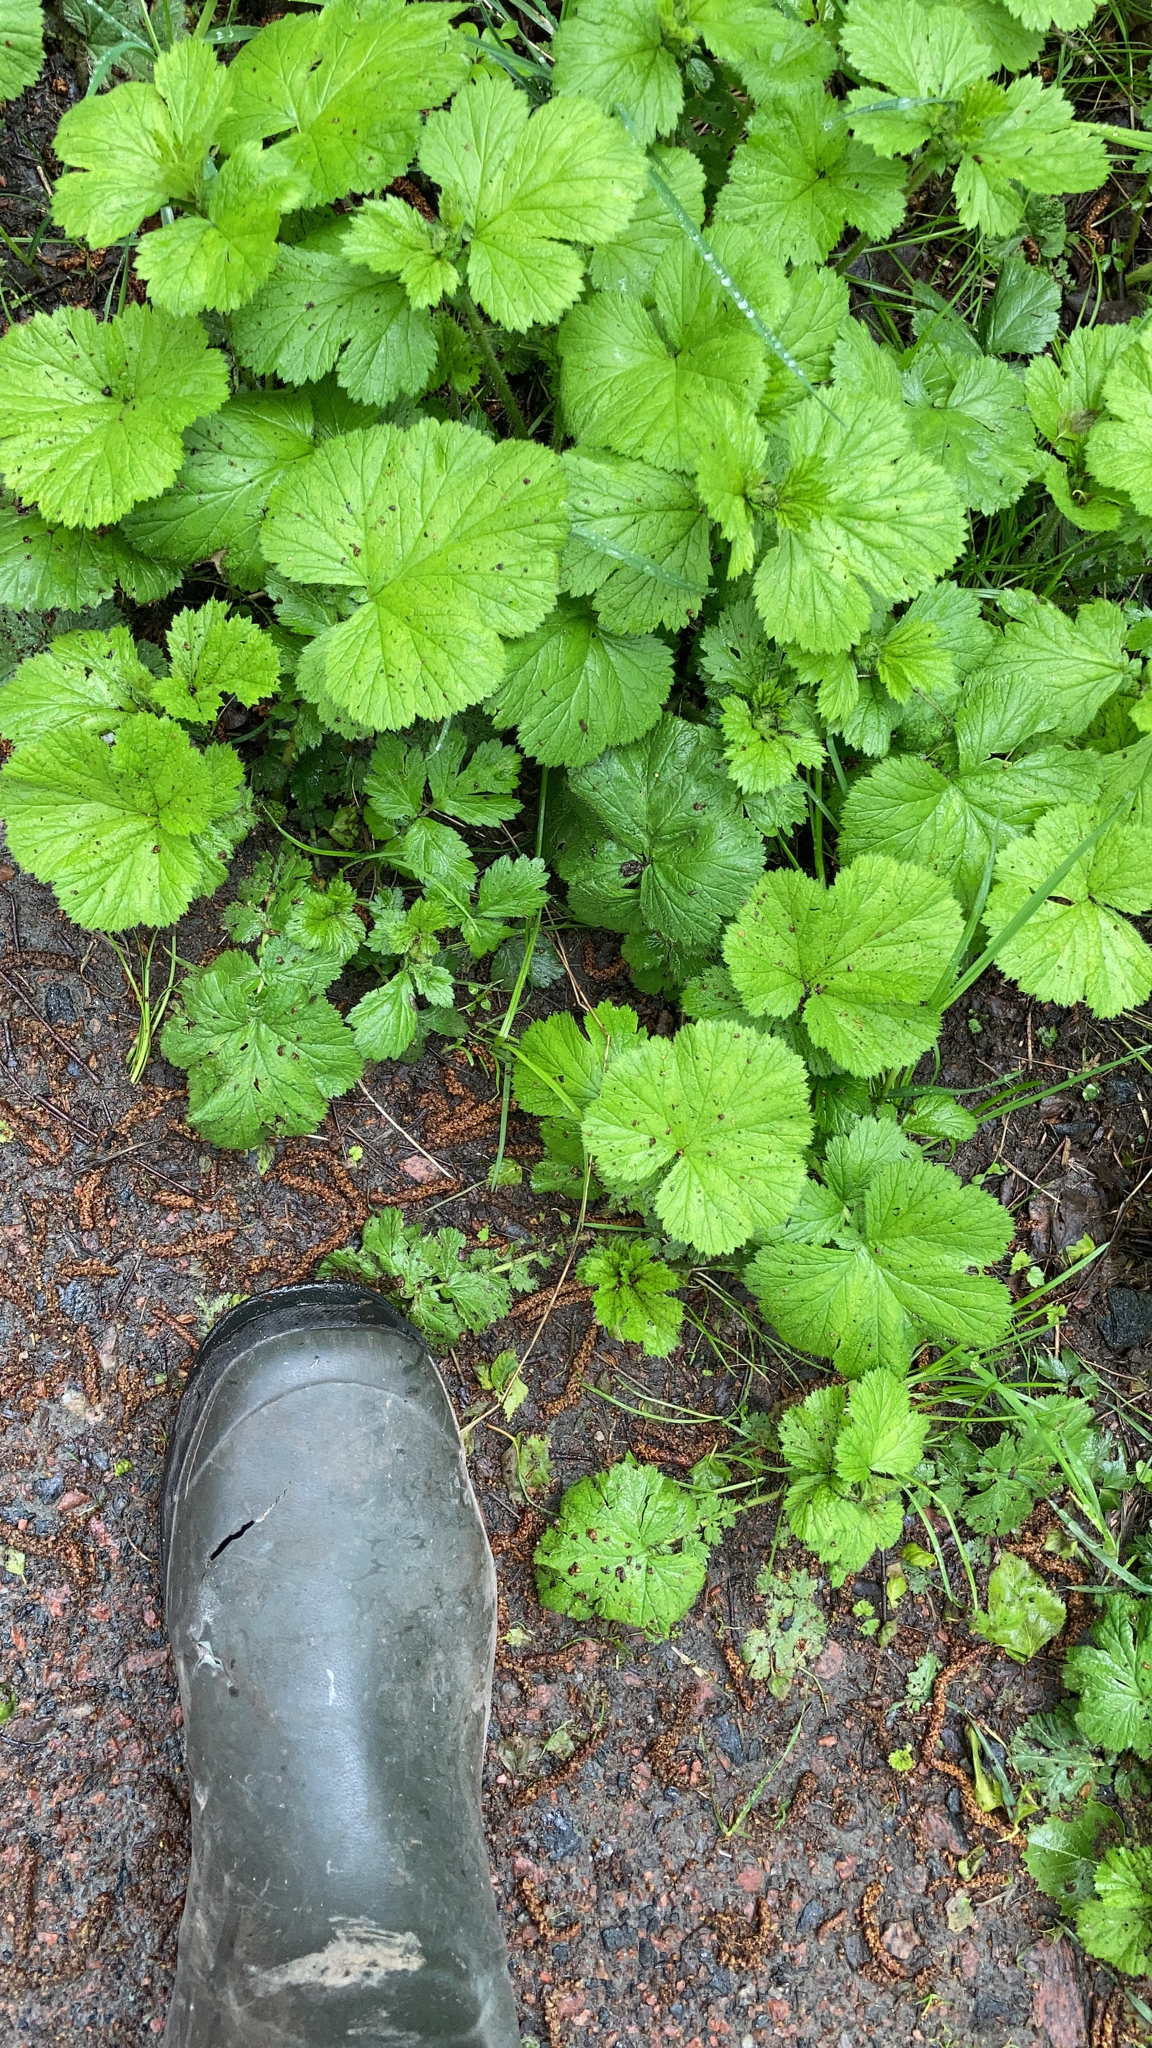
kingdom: Plantae
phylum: Tracheophyta
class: Magnoliopsida
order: Rosales
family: Rosaceae
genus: Geum
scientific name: Geum macrophyllum
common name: Large-leaved avens
